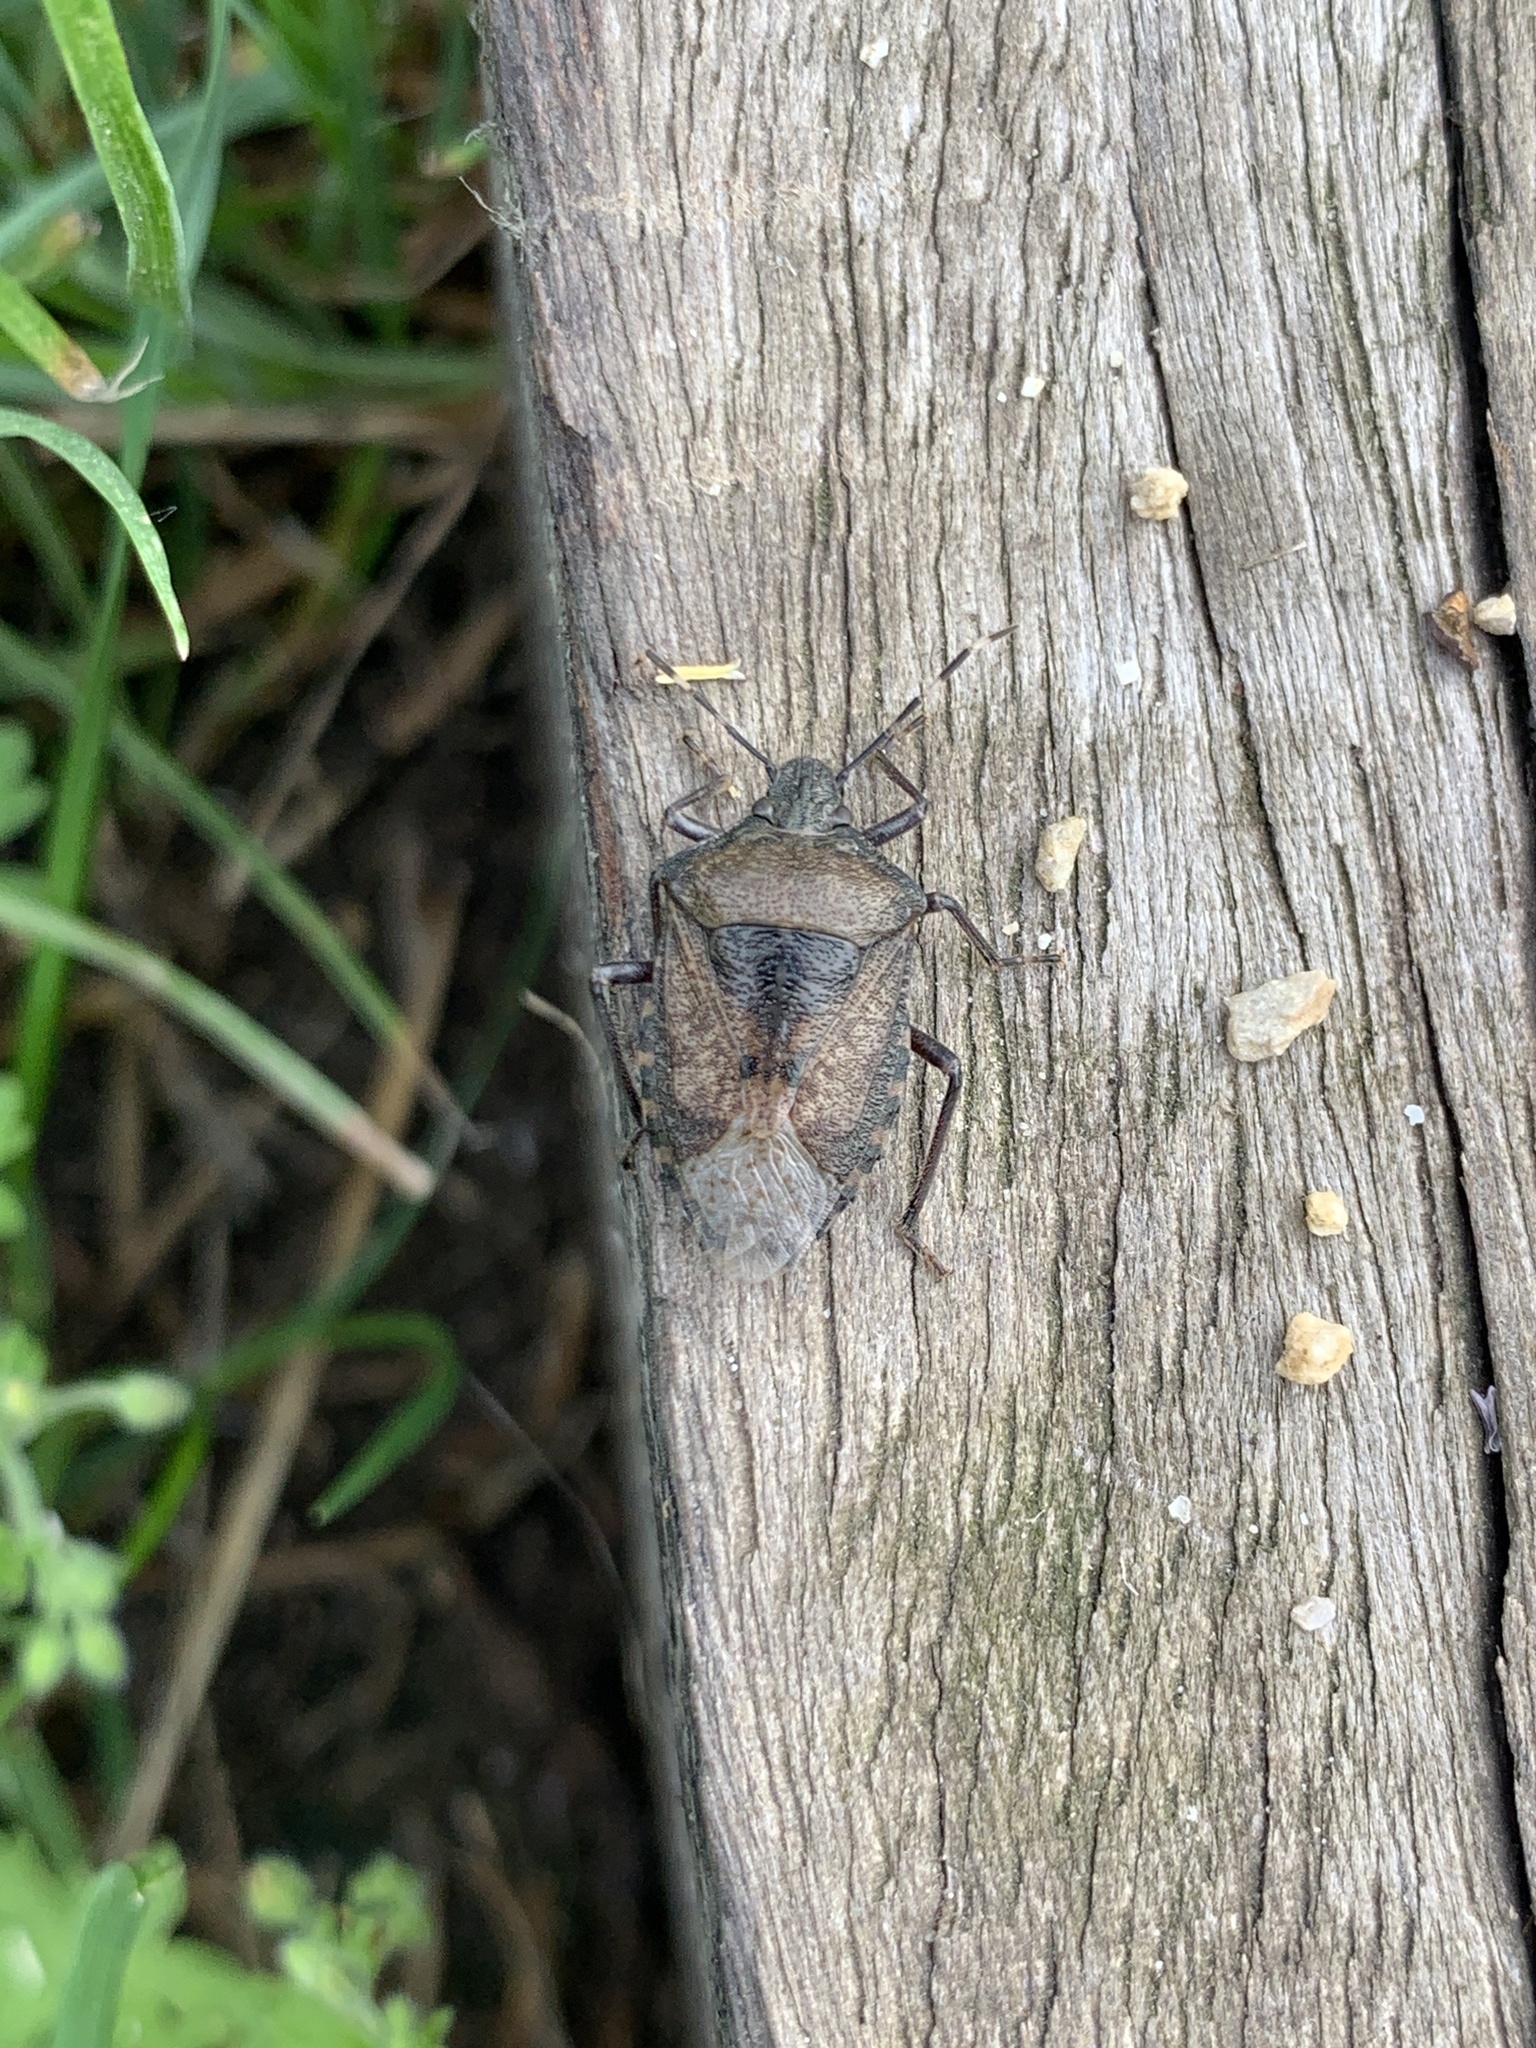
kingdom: Animalia
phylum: Arthropoda
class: Insecta
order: Hemiptera
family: Pentatomidae
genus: Rhaphigaster
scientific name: Rhaphigaster nebulosa
